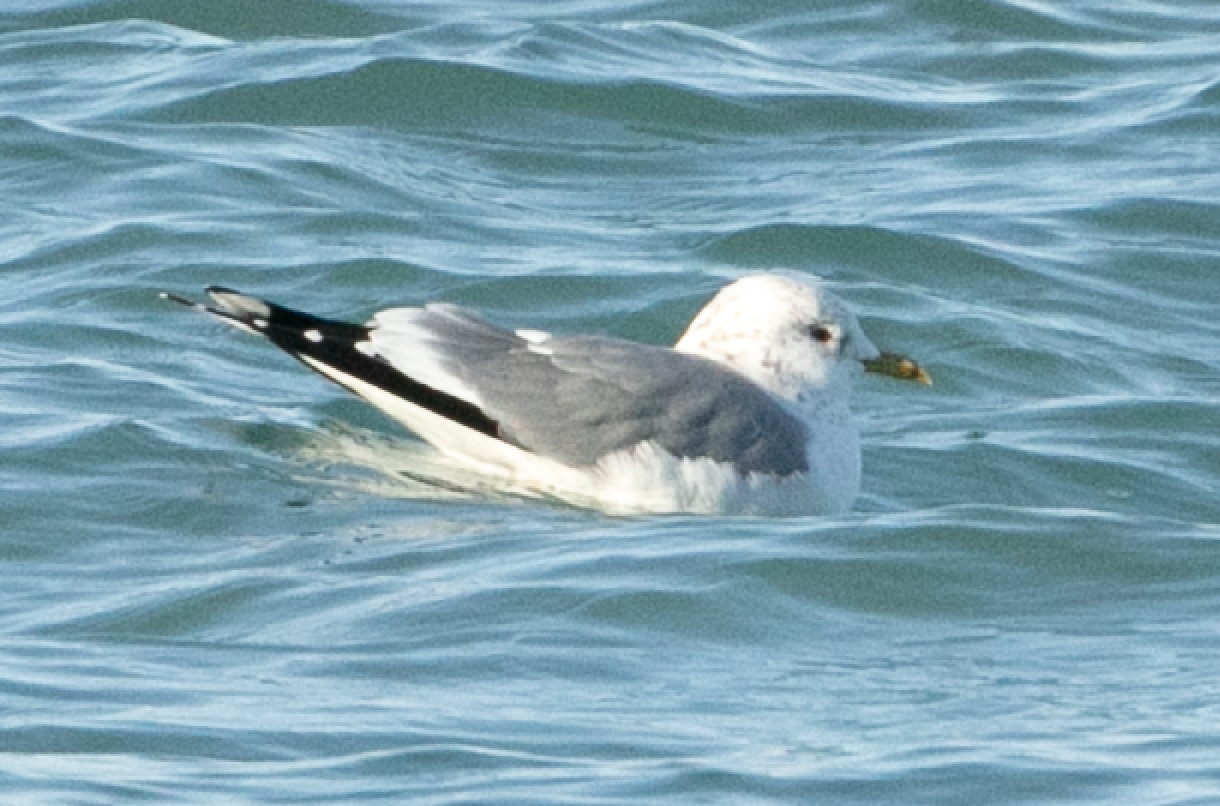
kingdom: Animalia
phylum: Chordata
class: Aves
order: Charadriiformes
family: Laridae
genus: Larus
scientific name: Larus canus
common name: Mew gull
